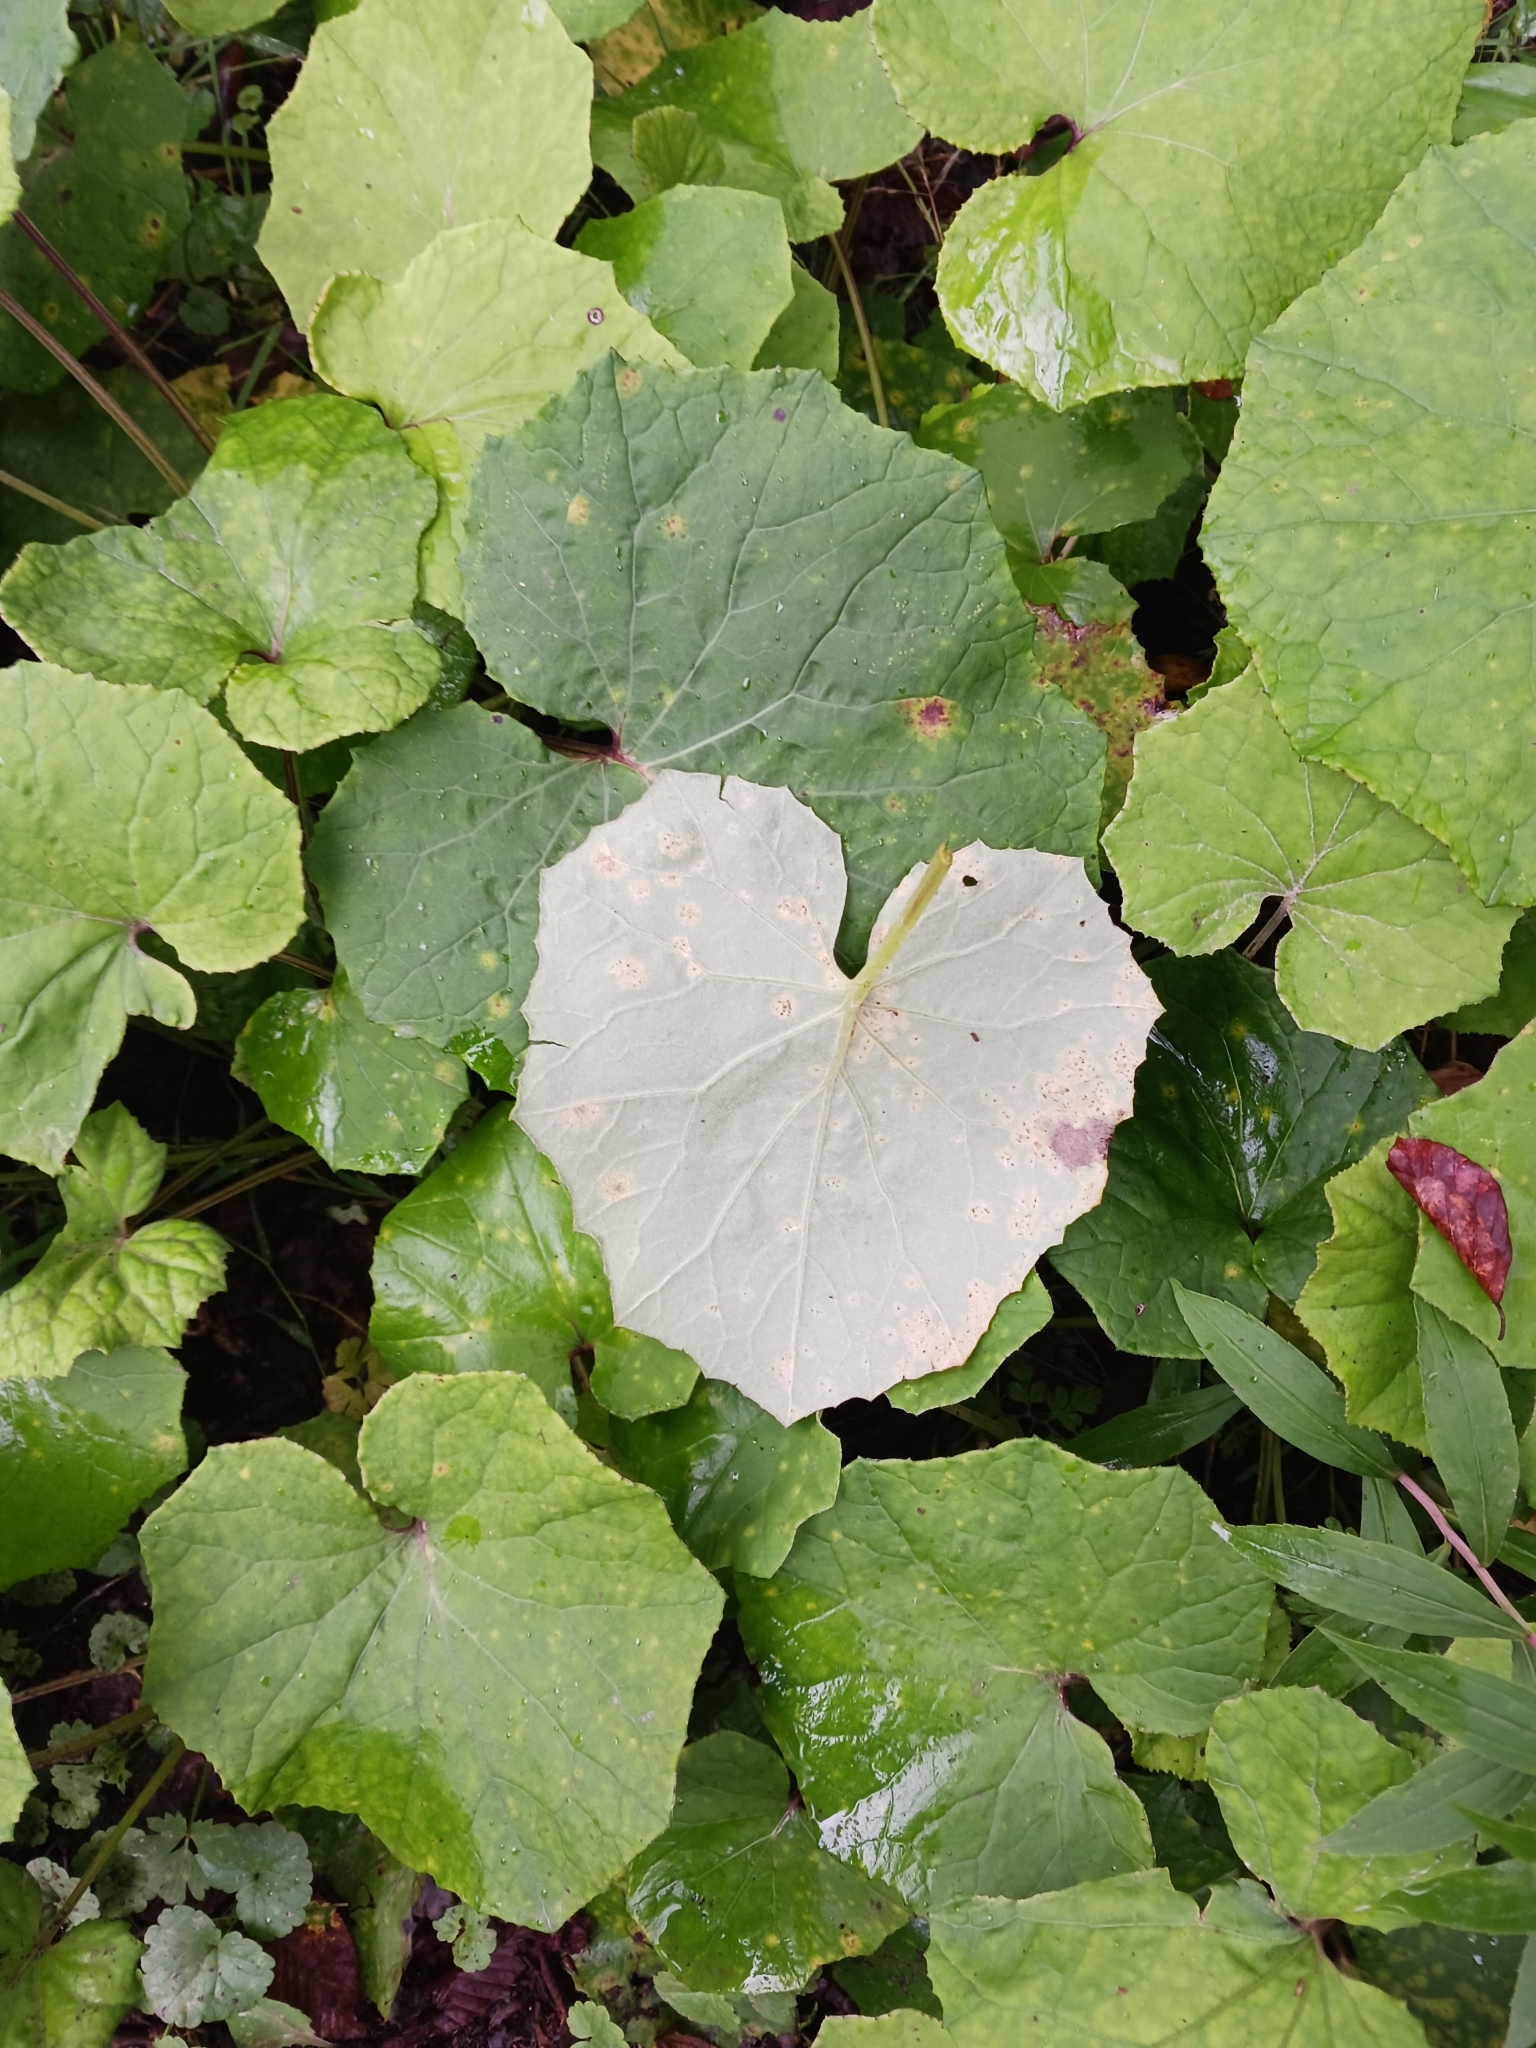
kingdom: Fungi
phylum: Basidiomycota
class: Pucciniomycetes
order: Pucciniales
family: Coleosporiaceae
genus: Coleosporium
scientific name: Coleosporium tussilaginis
